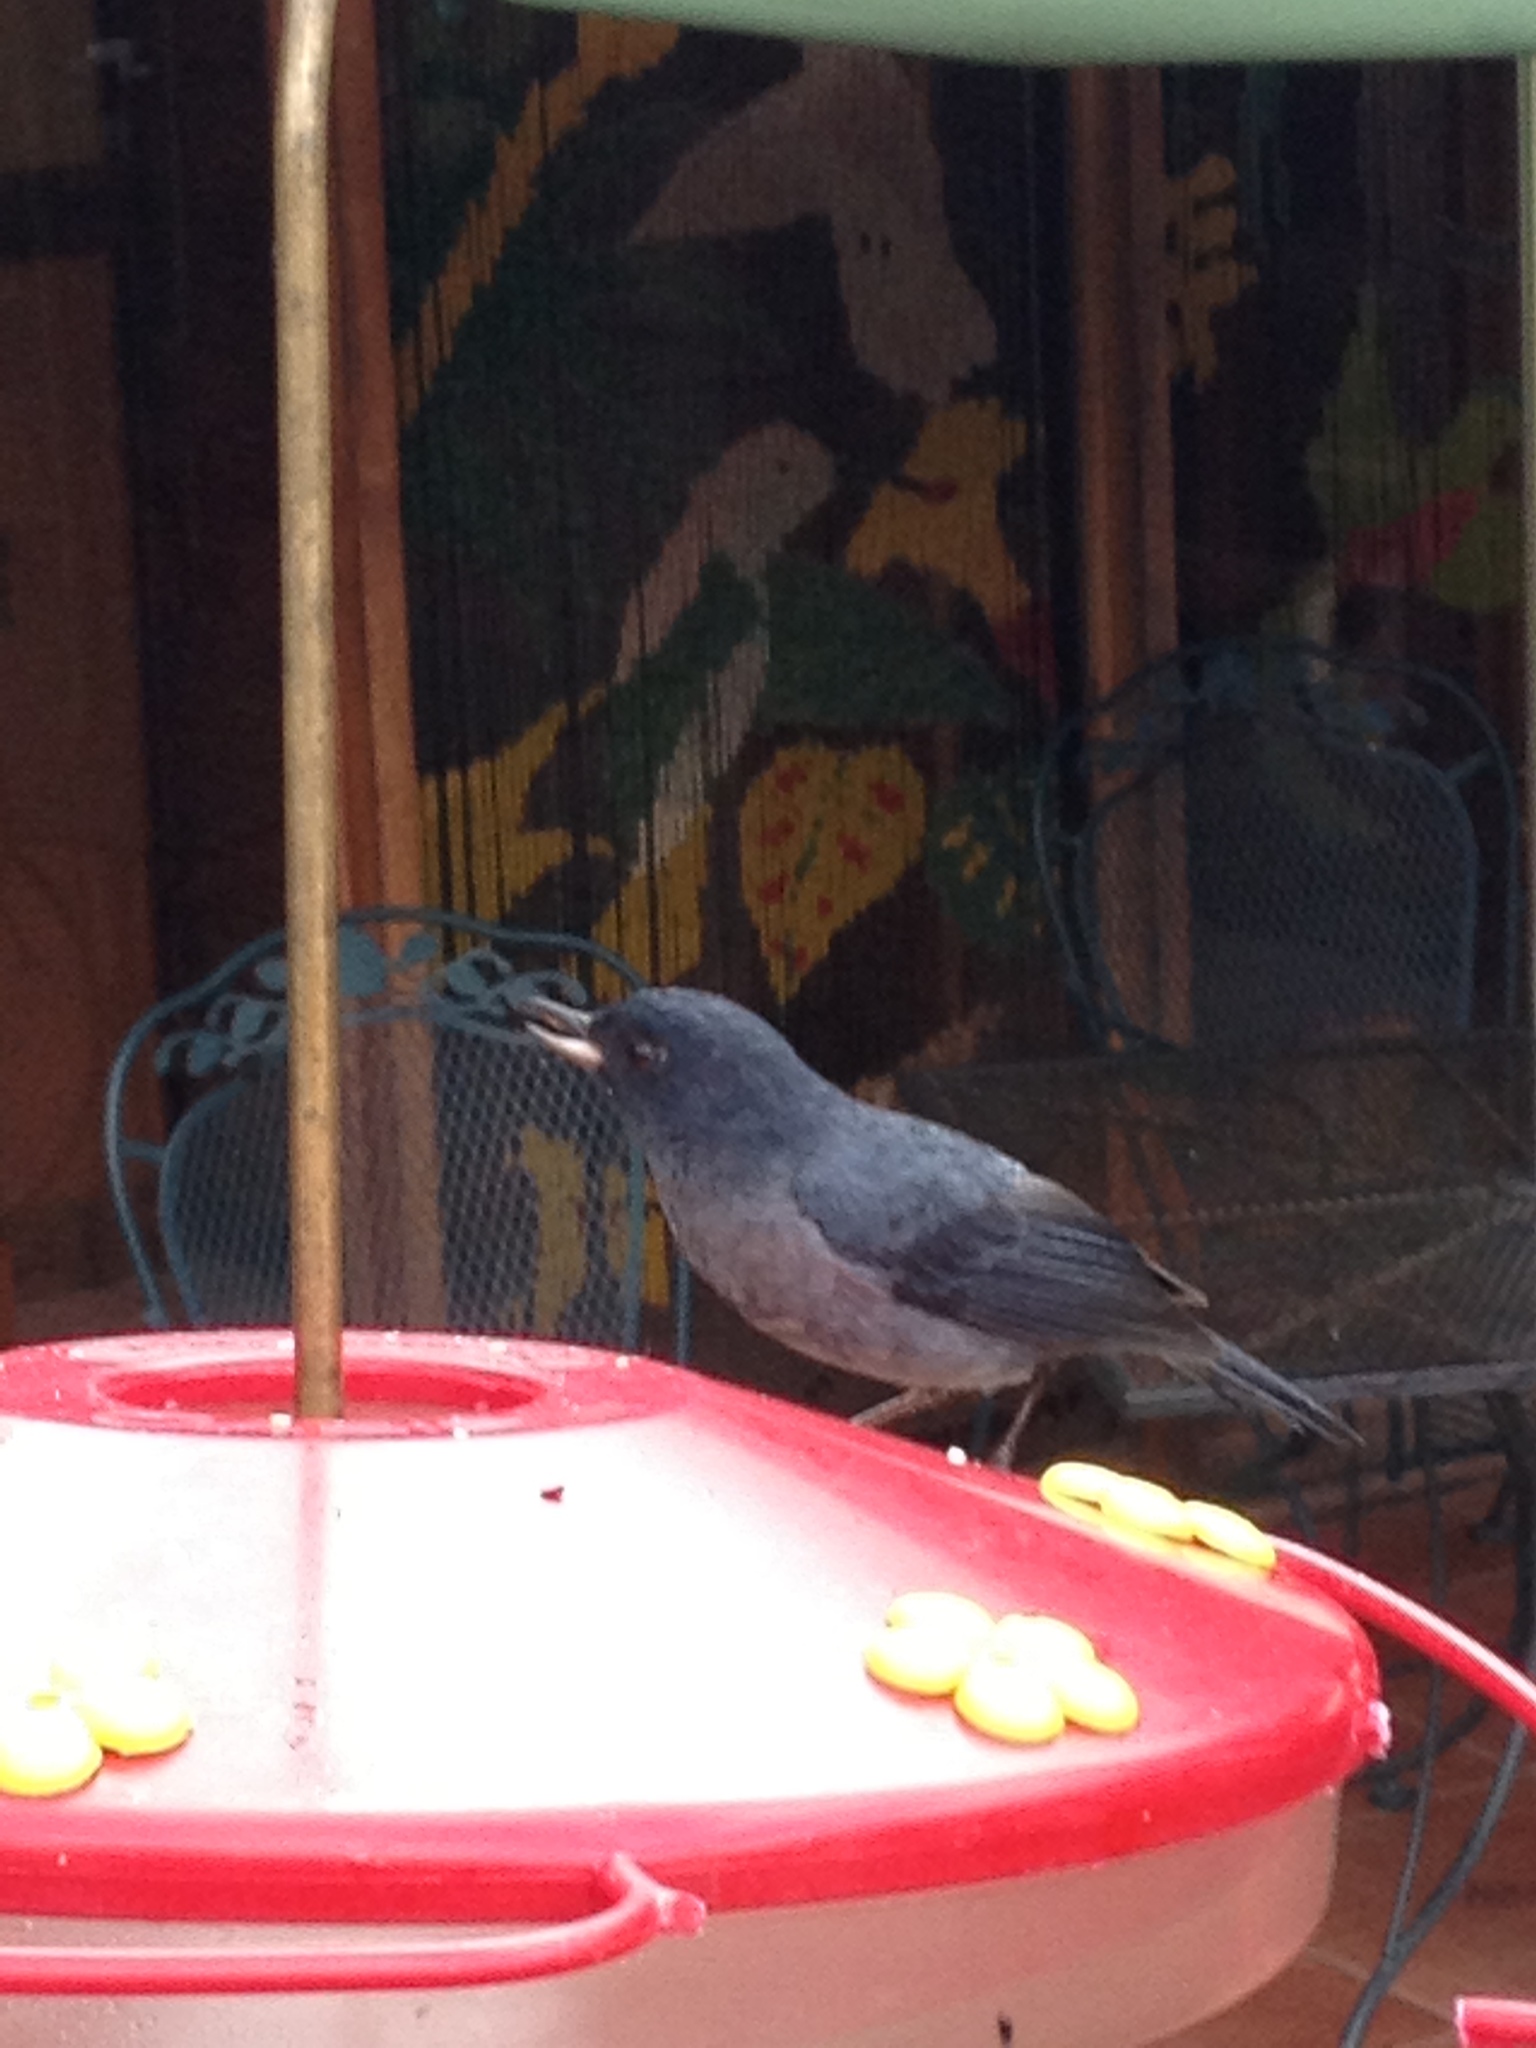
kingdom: Animalia
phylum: Chordata
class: Aves
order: Passeriformes
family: Thraupidae
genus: Diglossa
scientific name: Diglossa plumbea
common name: Slaty flowerpiercer
